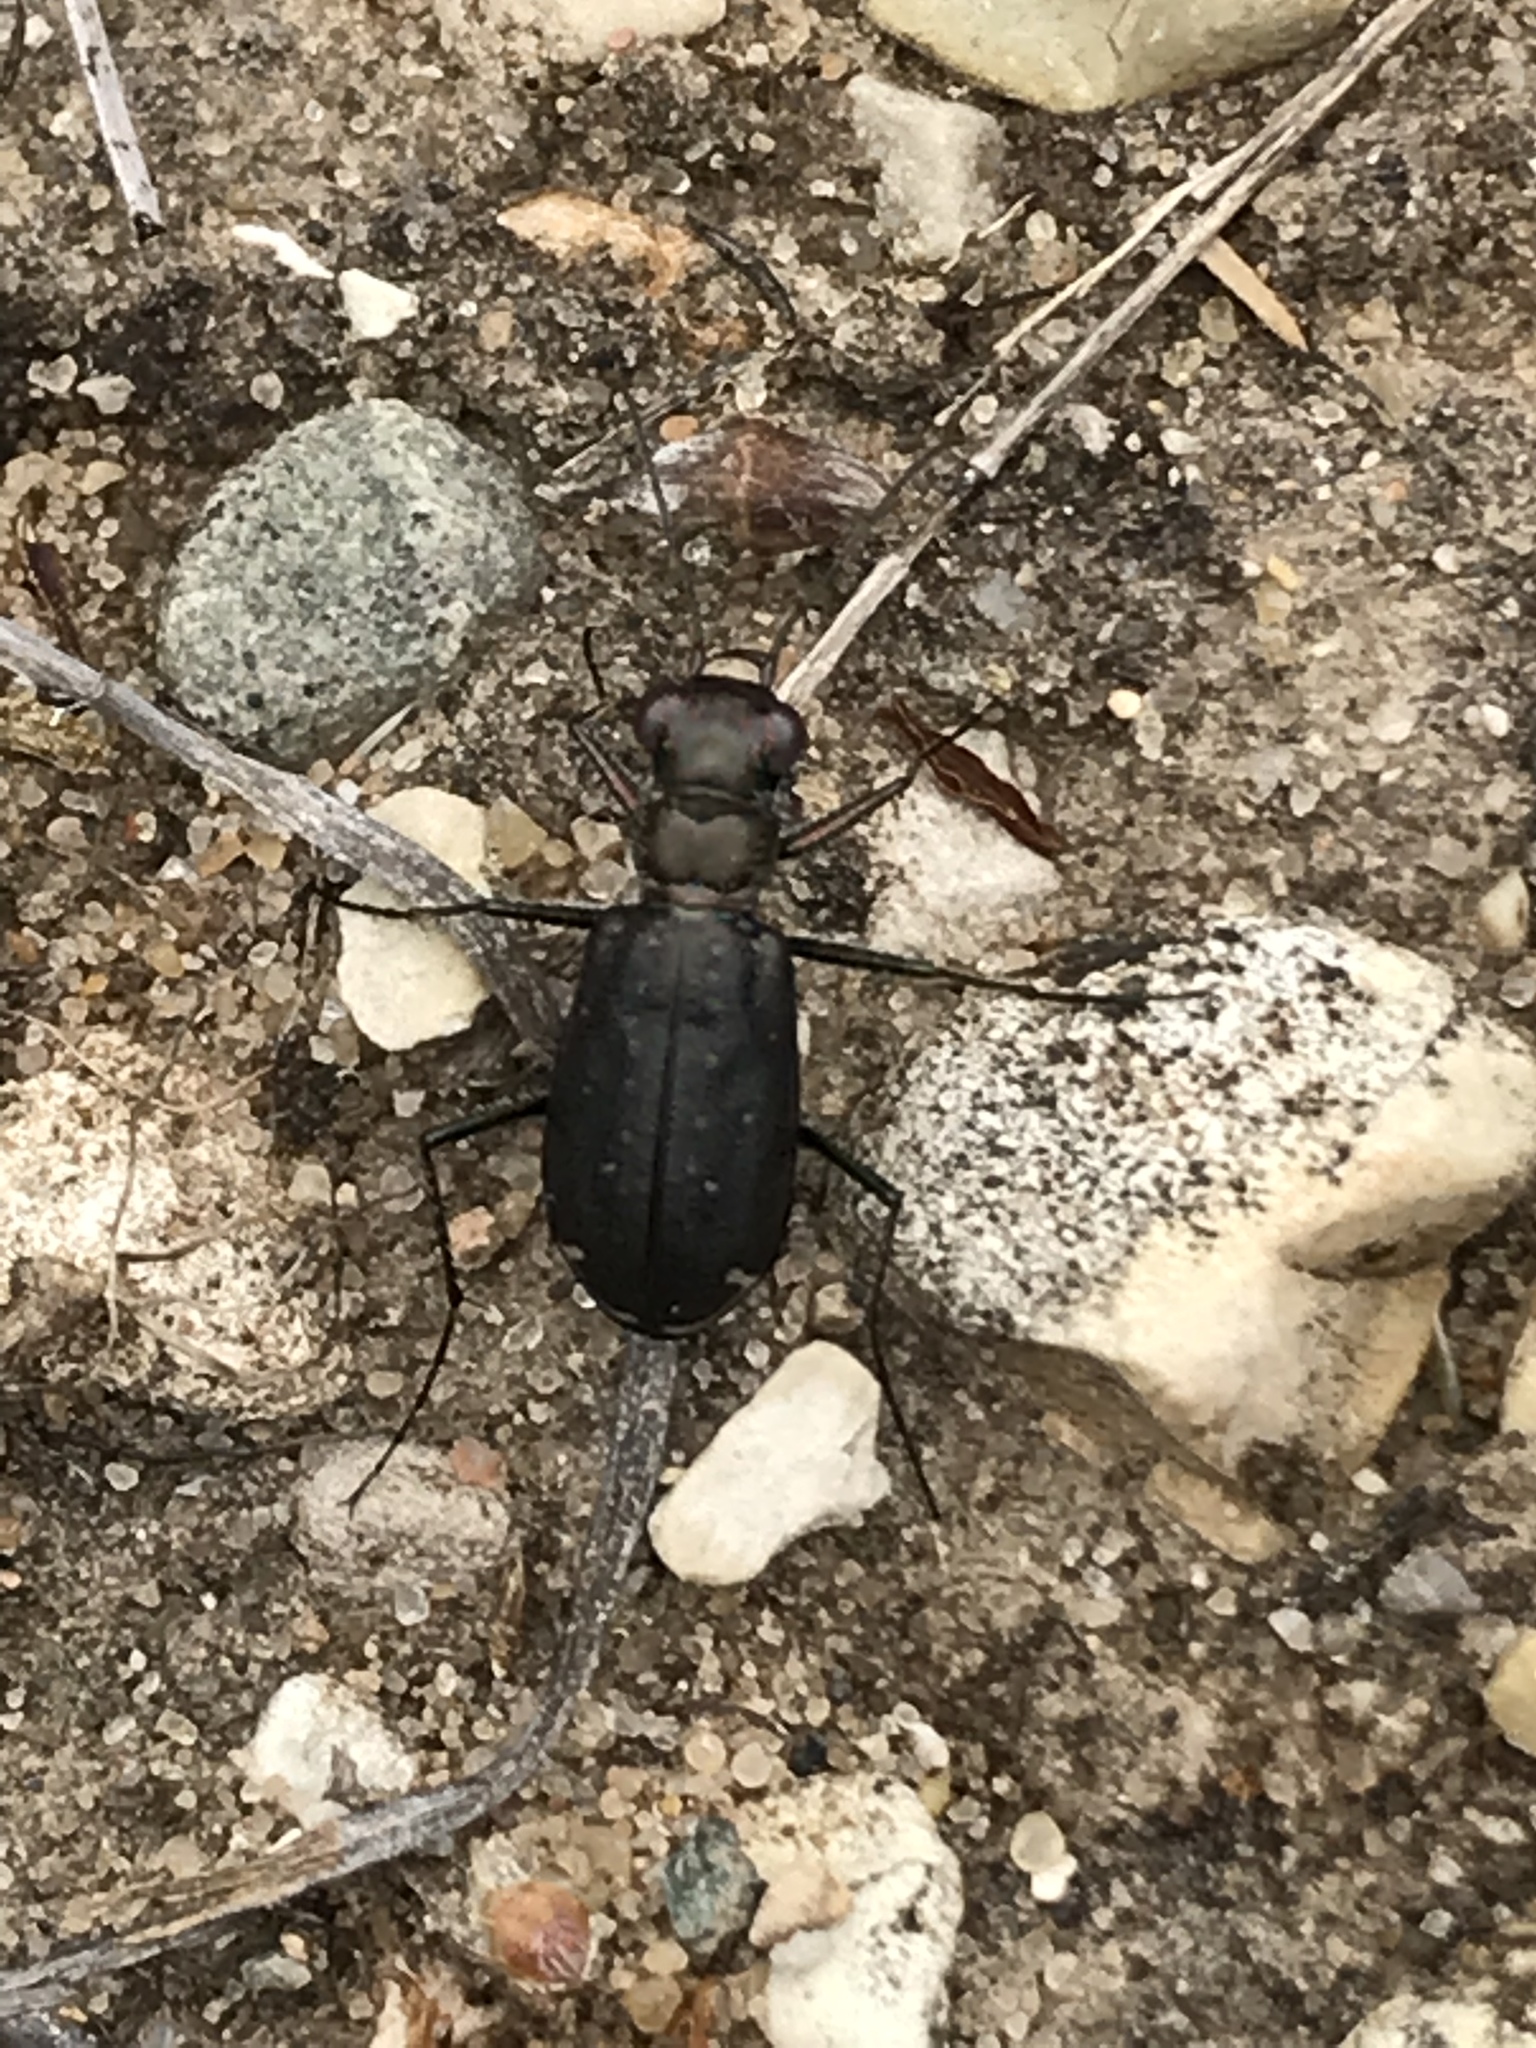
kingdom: Animalia
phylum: Arthropoda
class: Insecta
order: Coleoptera
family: Carabidae
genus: Cicindela
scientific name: Cicindela punctulata
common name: Punctured tiger beetle
